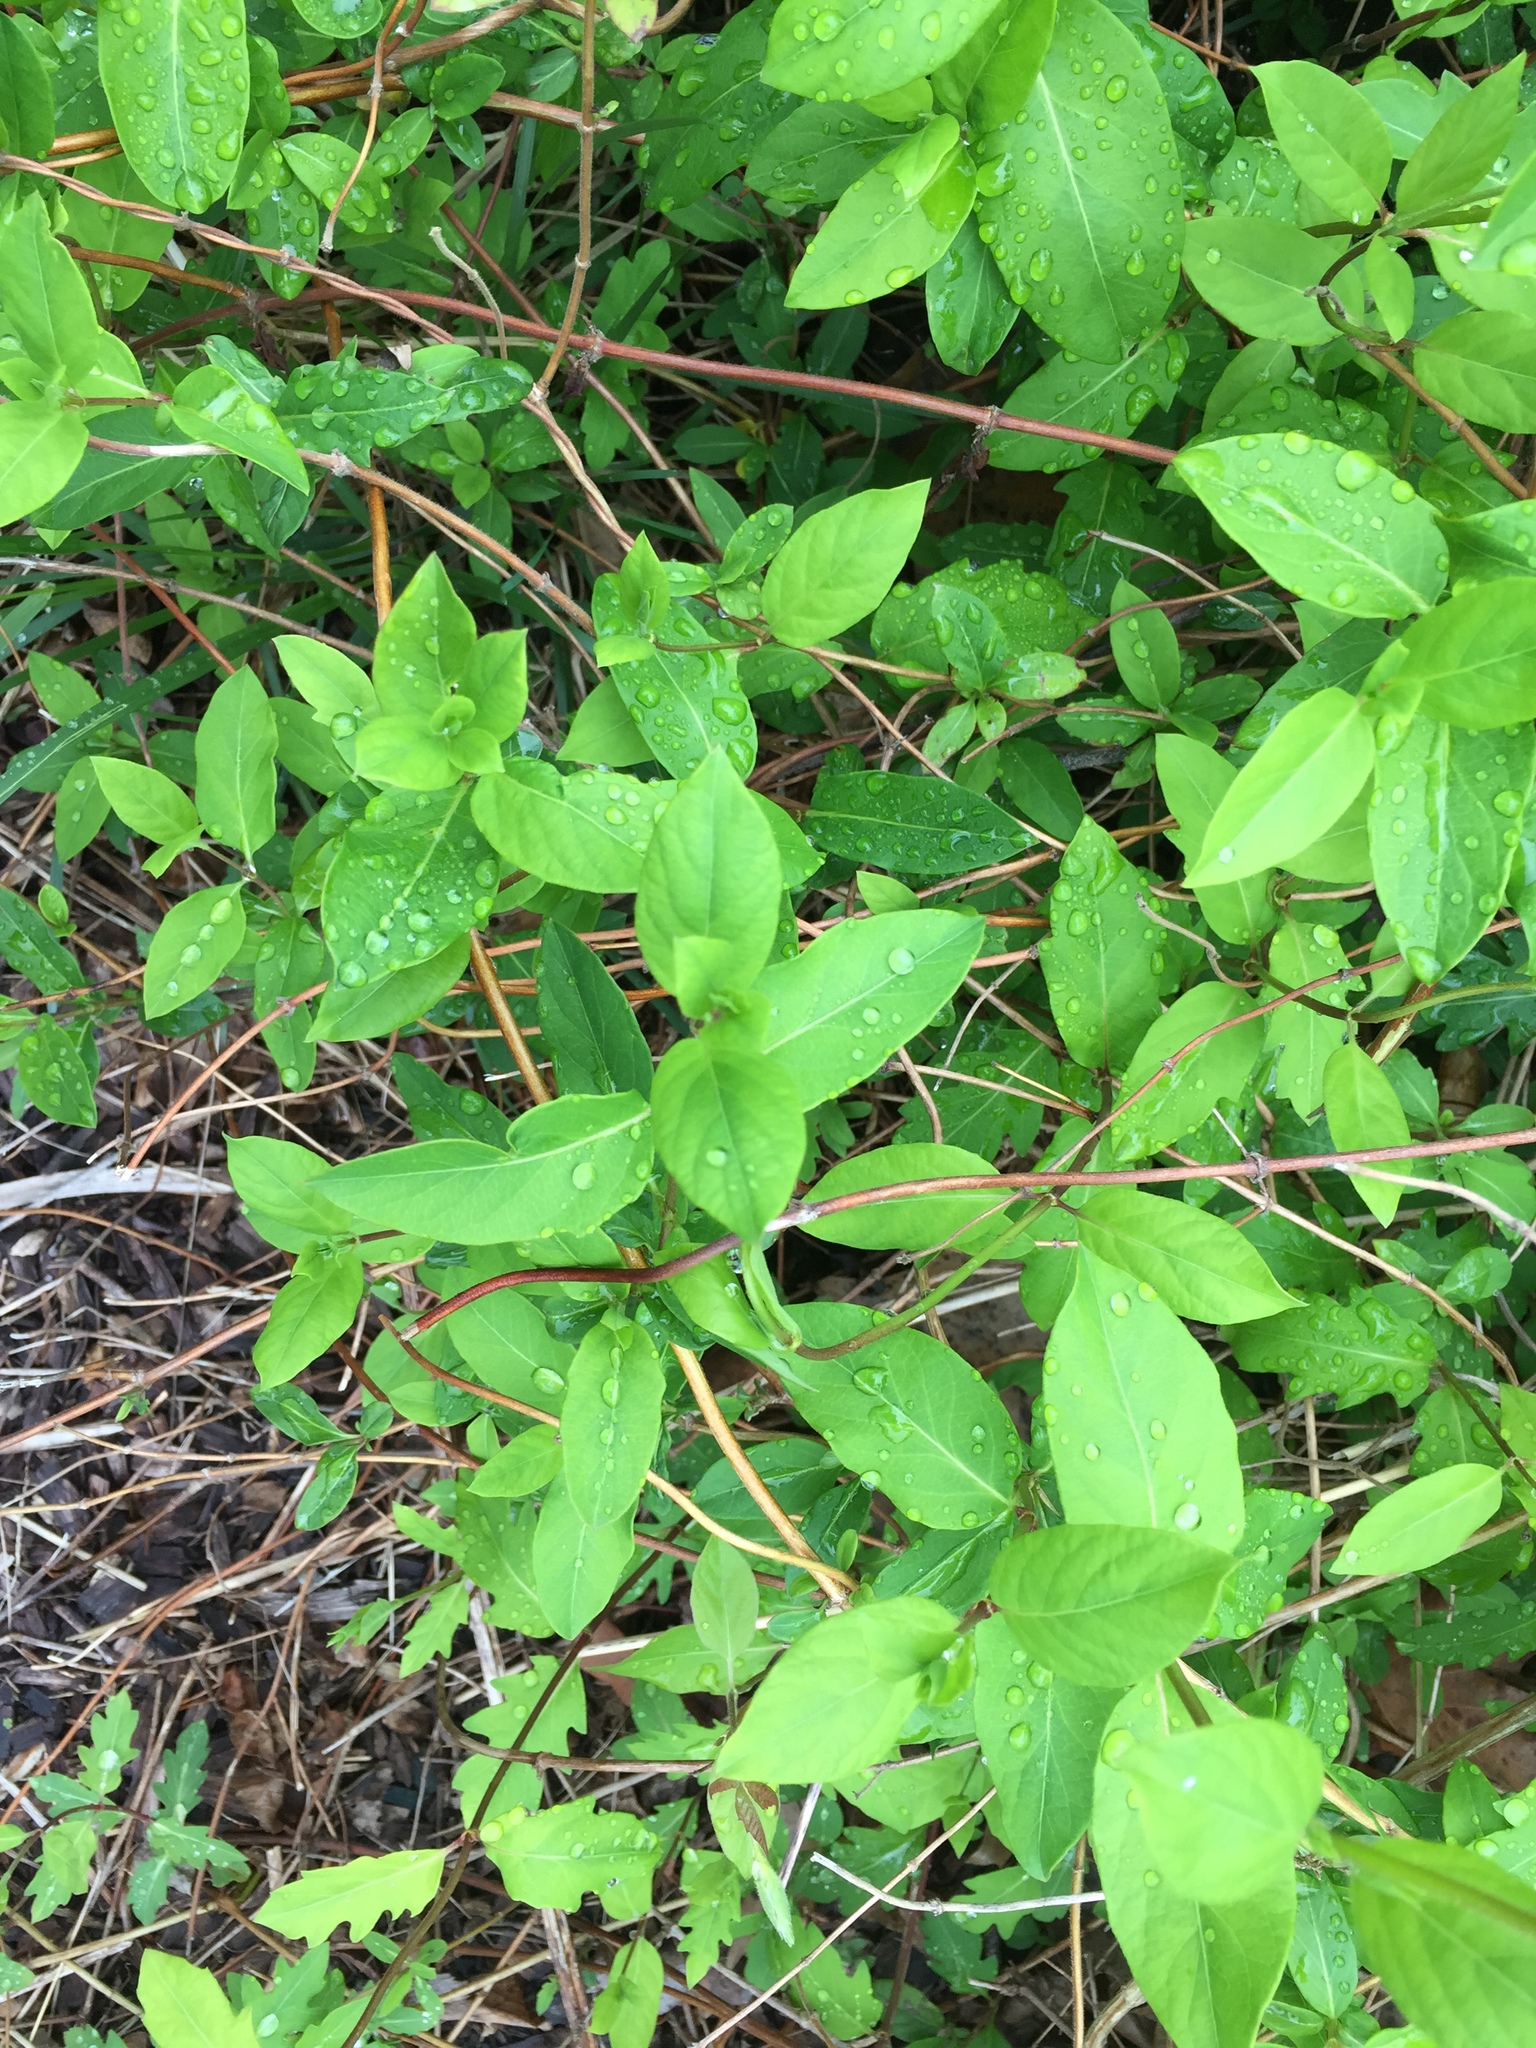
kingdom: Plantae
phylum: Tracheophyta
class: Magnoliopsida
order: Dipsacales
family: Caprifoliaceae
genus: Lonicera
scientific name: Lonicera japonica
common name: Japanese honeysuckle
